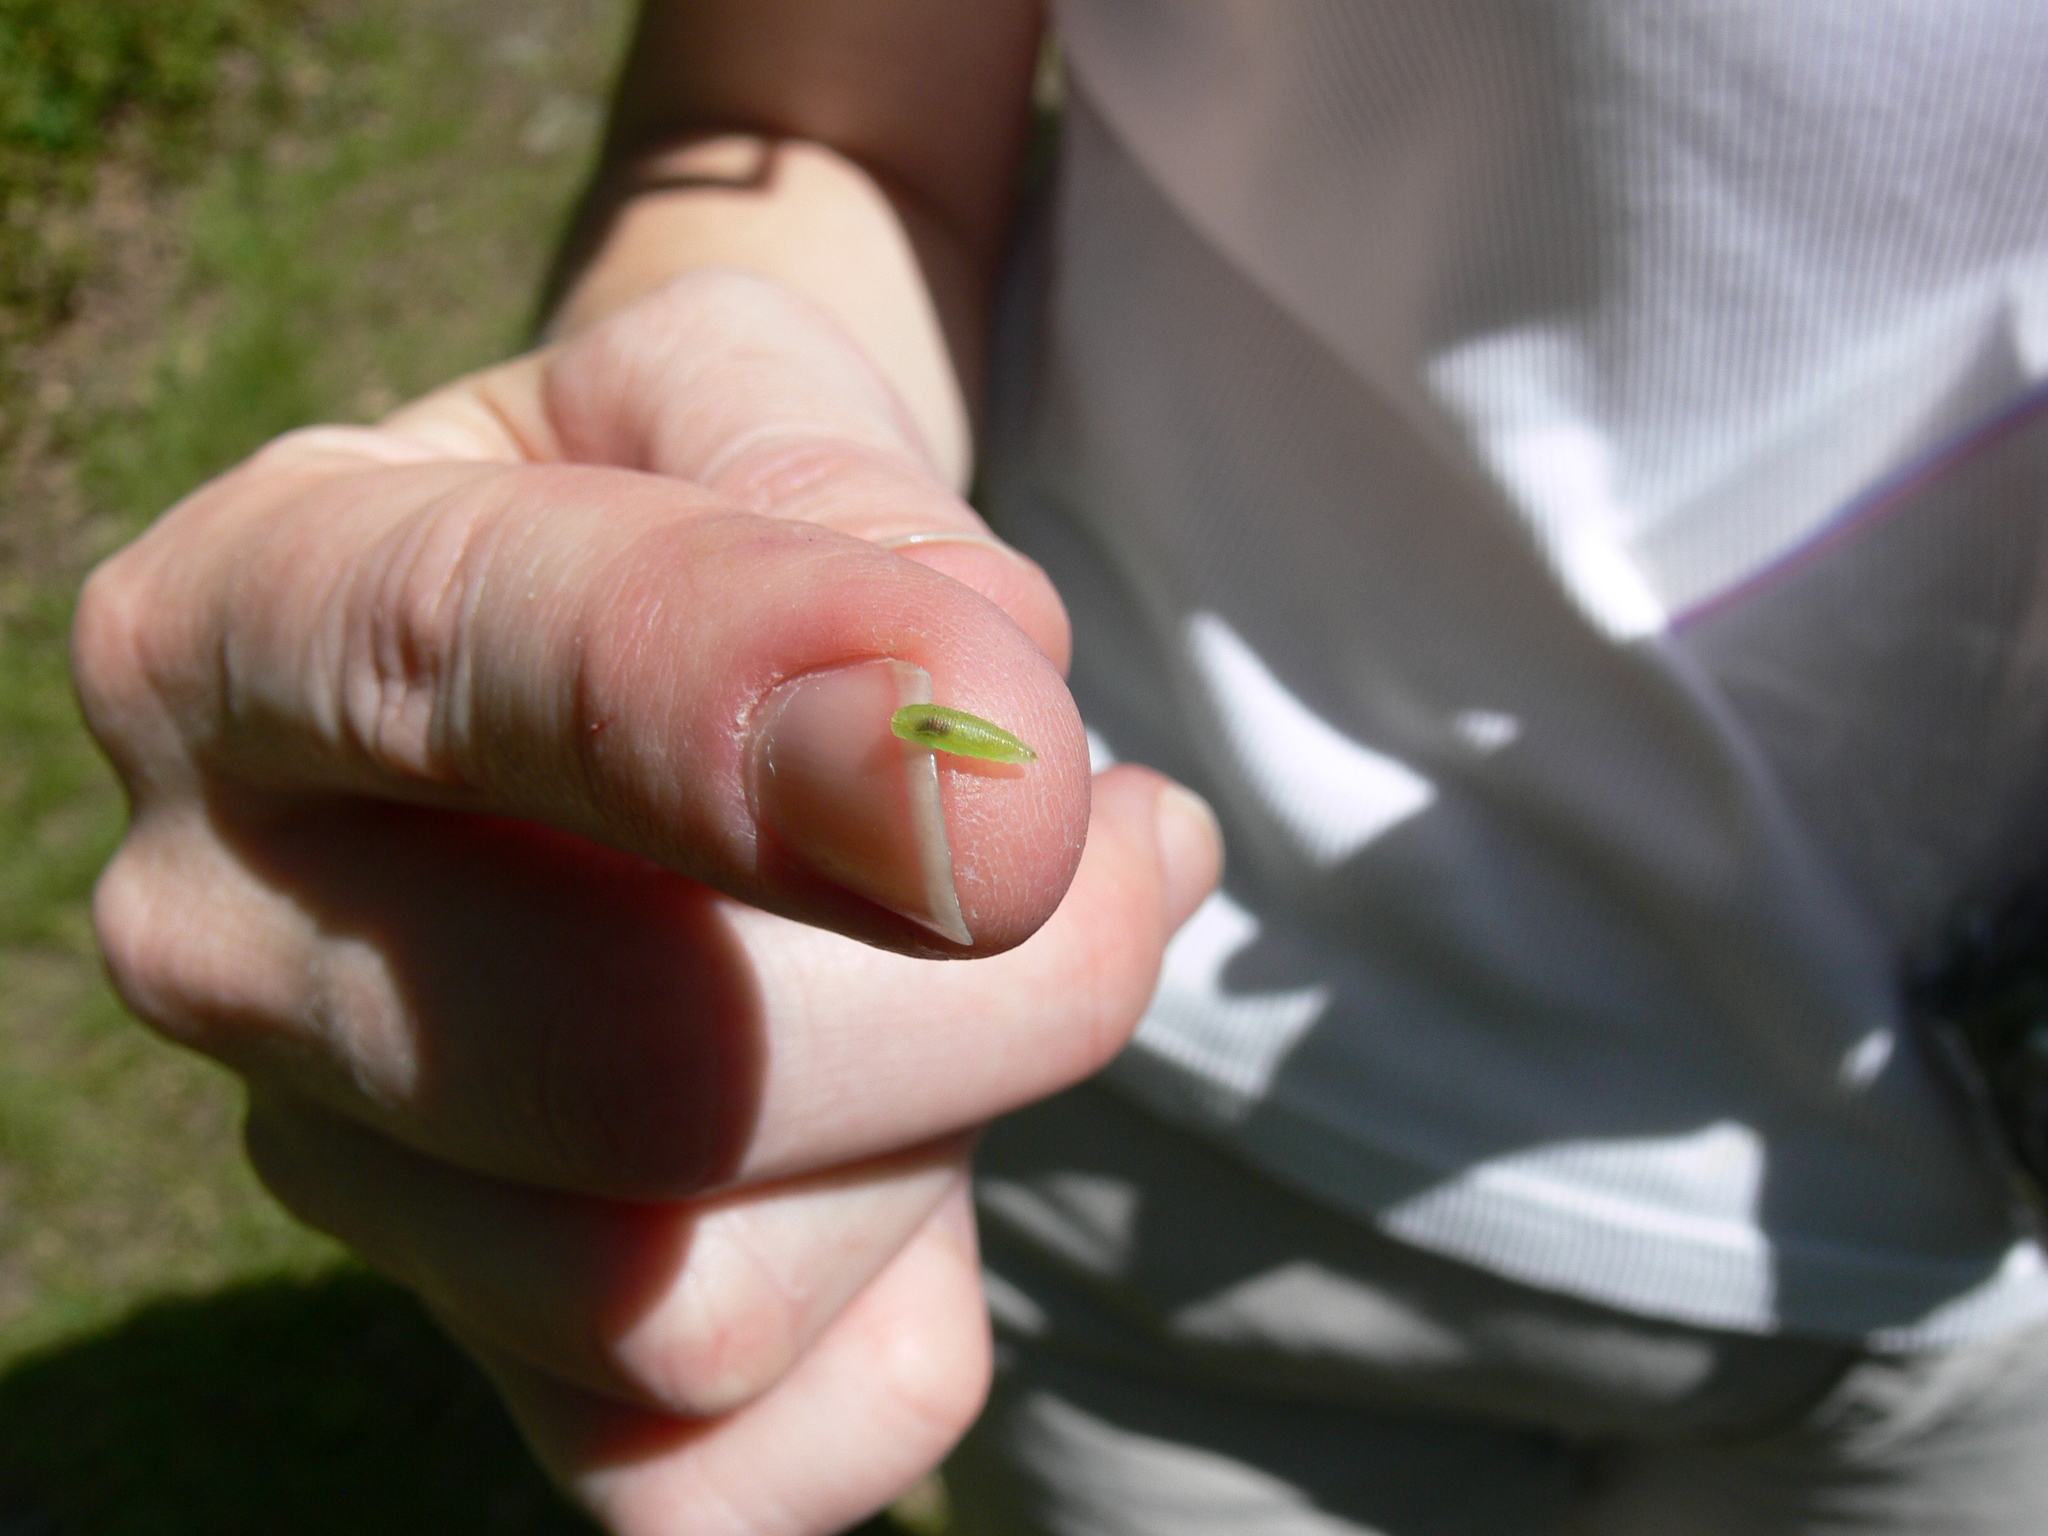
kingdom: Animalia
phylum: Arthropoda
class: Insecta
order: Diptera
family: Syrphidae
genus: Toxomerus
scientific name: Toxomerus
